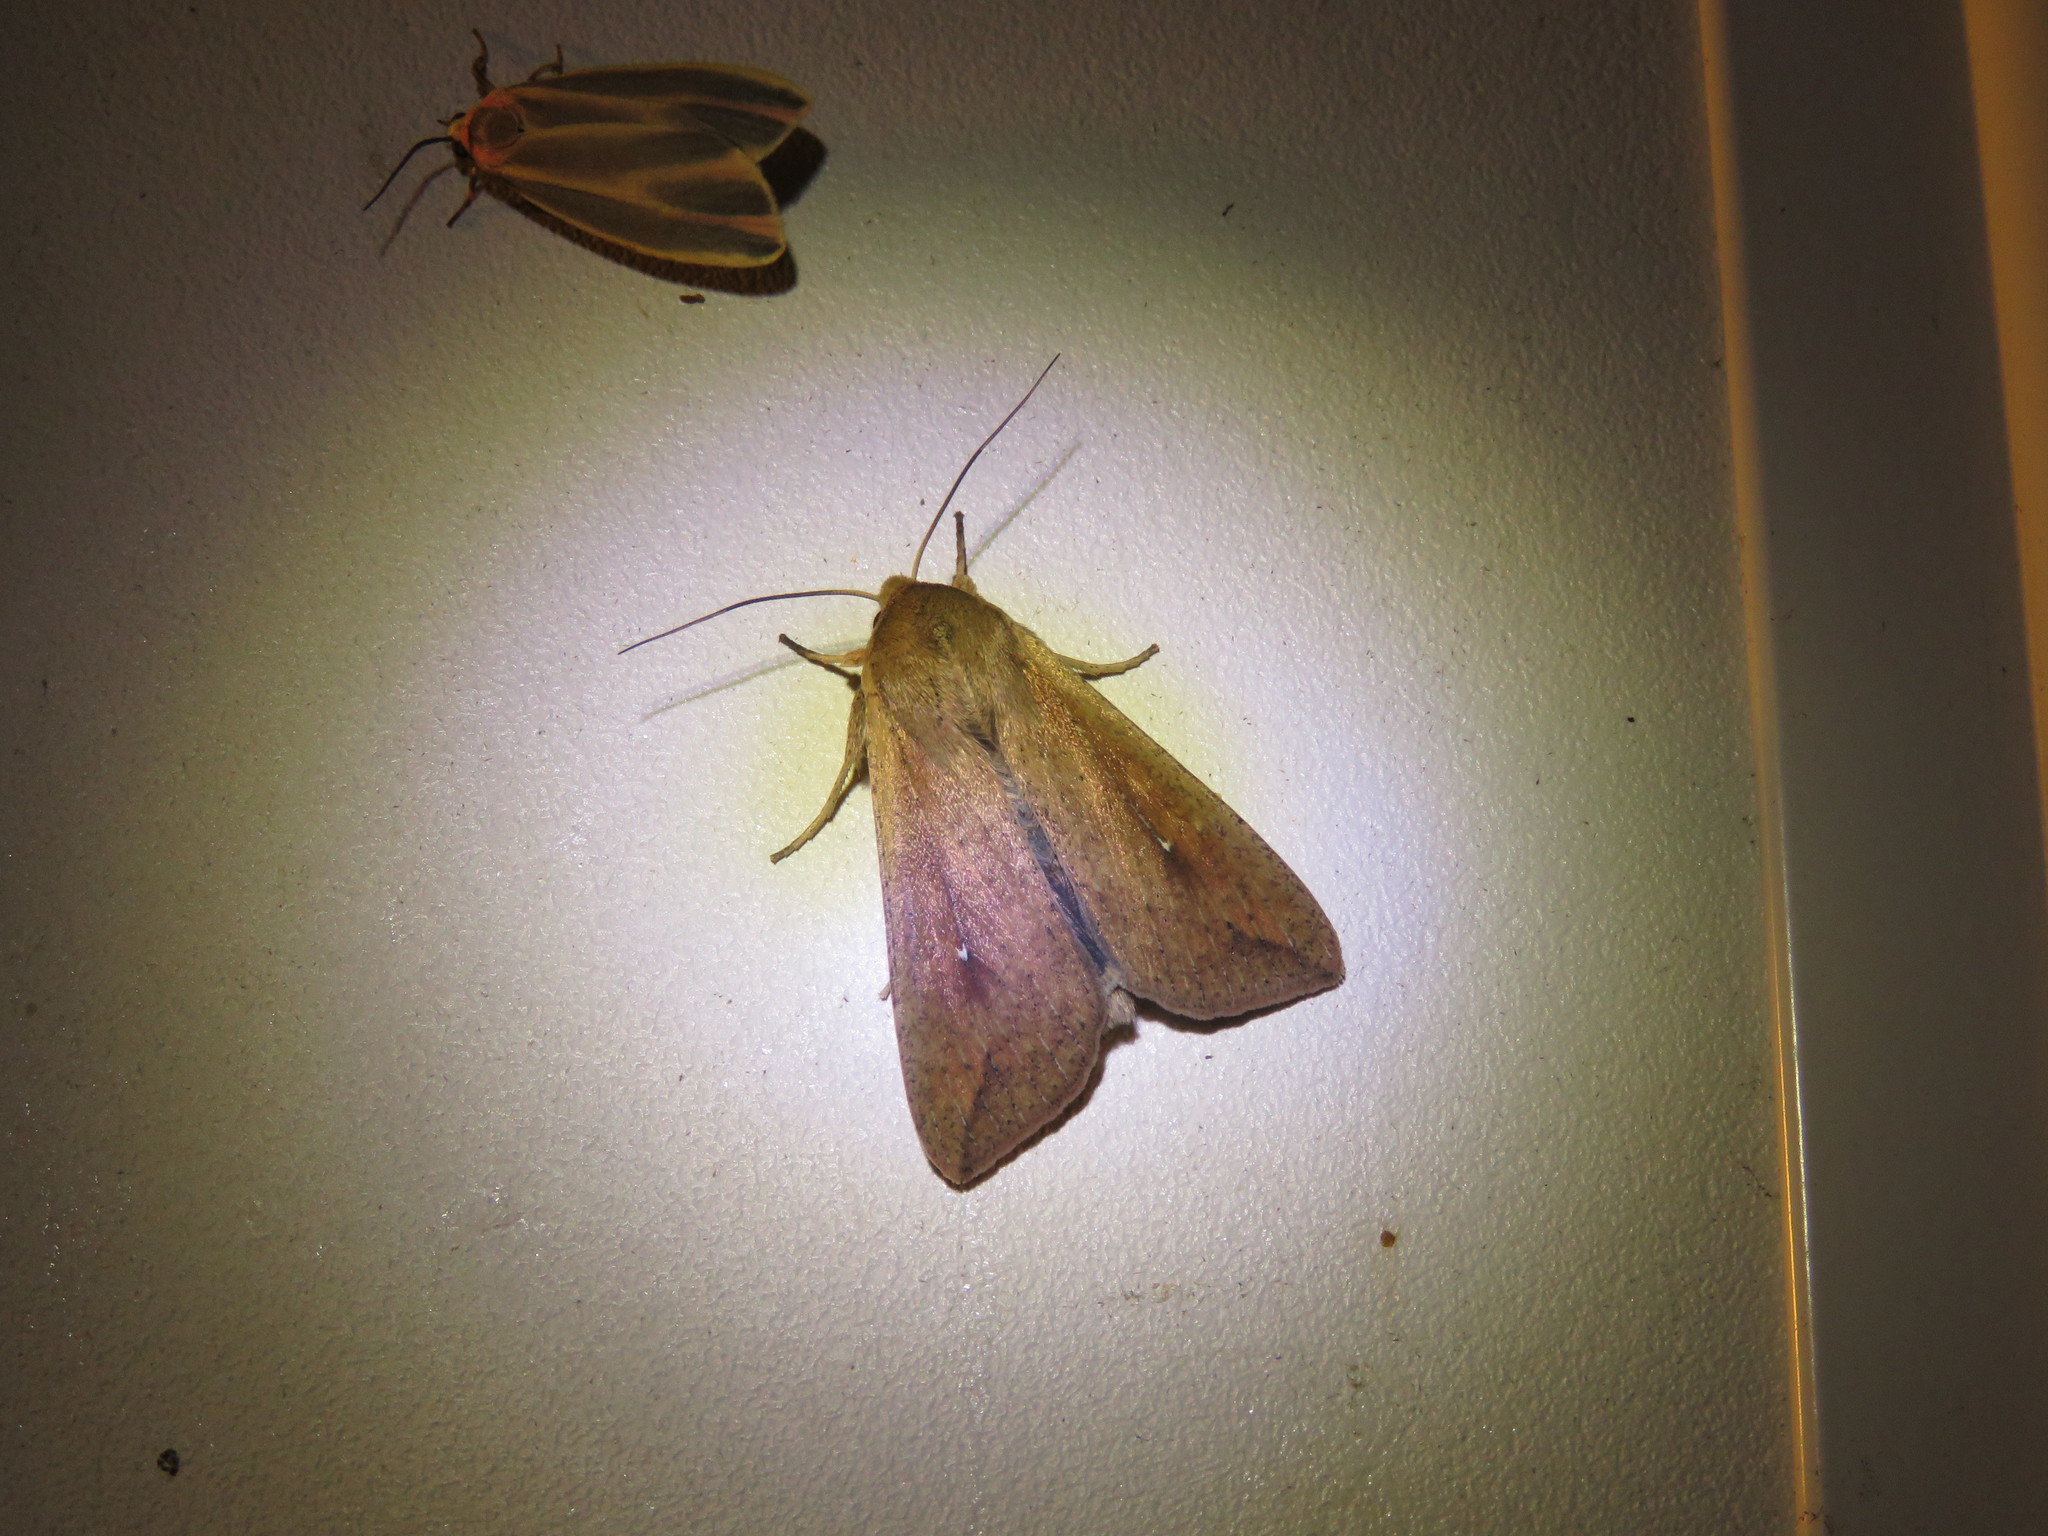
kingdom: Animalia
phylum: Arthropoda
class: Insecta
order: Lepidoptera
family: Noctuidae
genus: Mythimna
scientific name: Mythimna unipuncta
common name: White-speck
